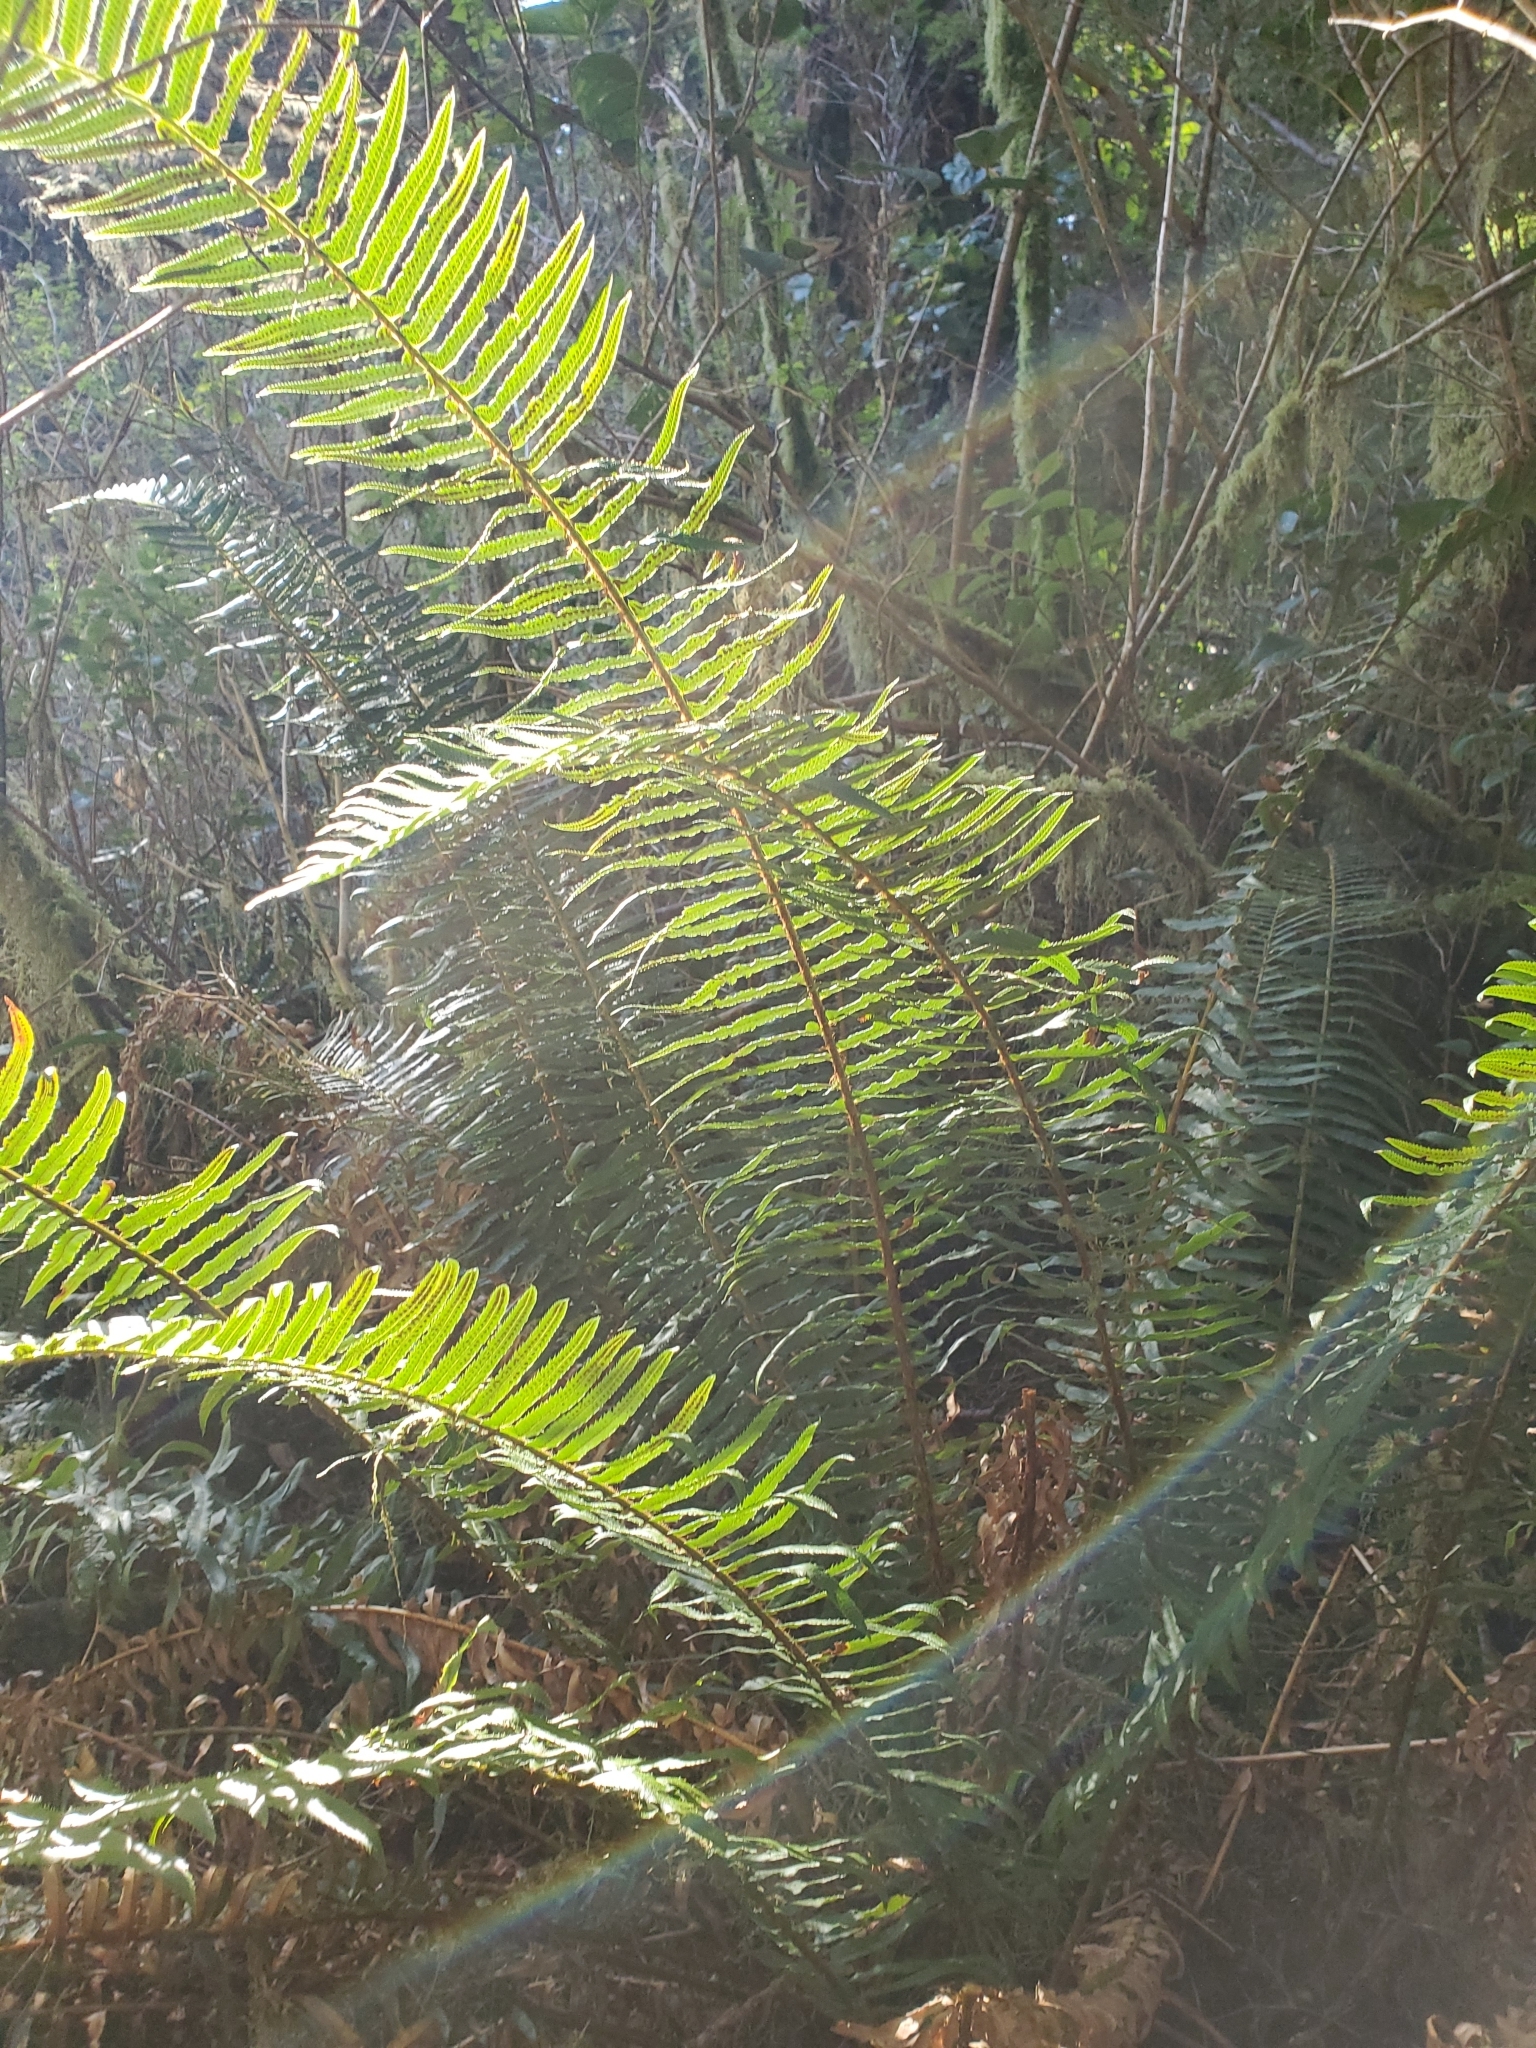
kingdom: Plantae
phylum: Tracheophyta
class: Polypodiopsida
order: Polypodiales
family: Dryopteridaceae
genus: Polystichum
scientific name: Polystichum munitum
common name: Western sword-fern
